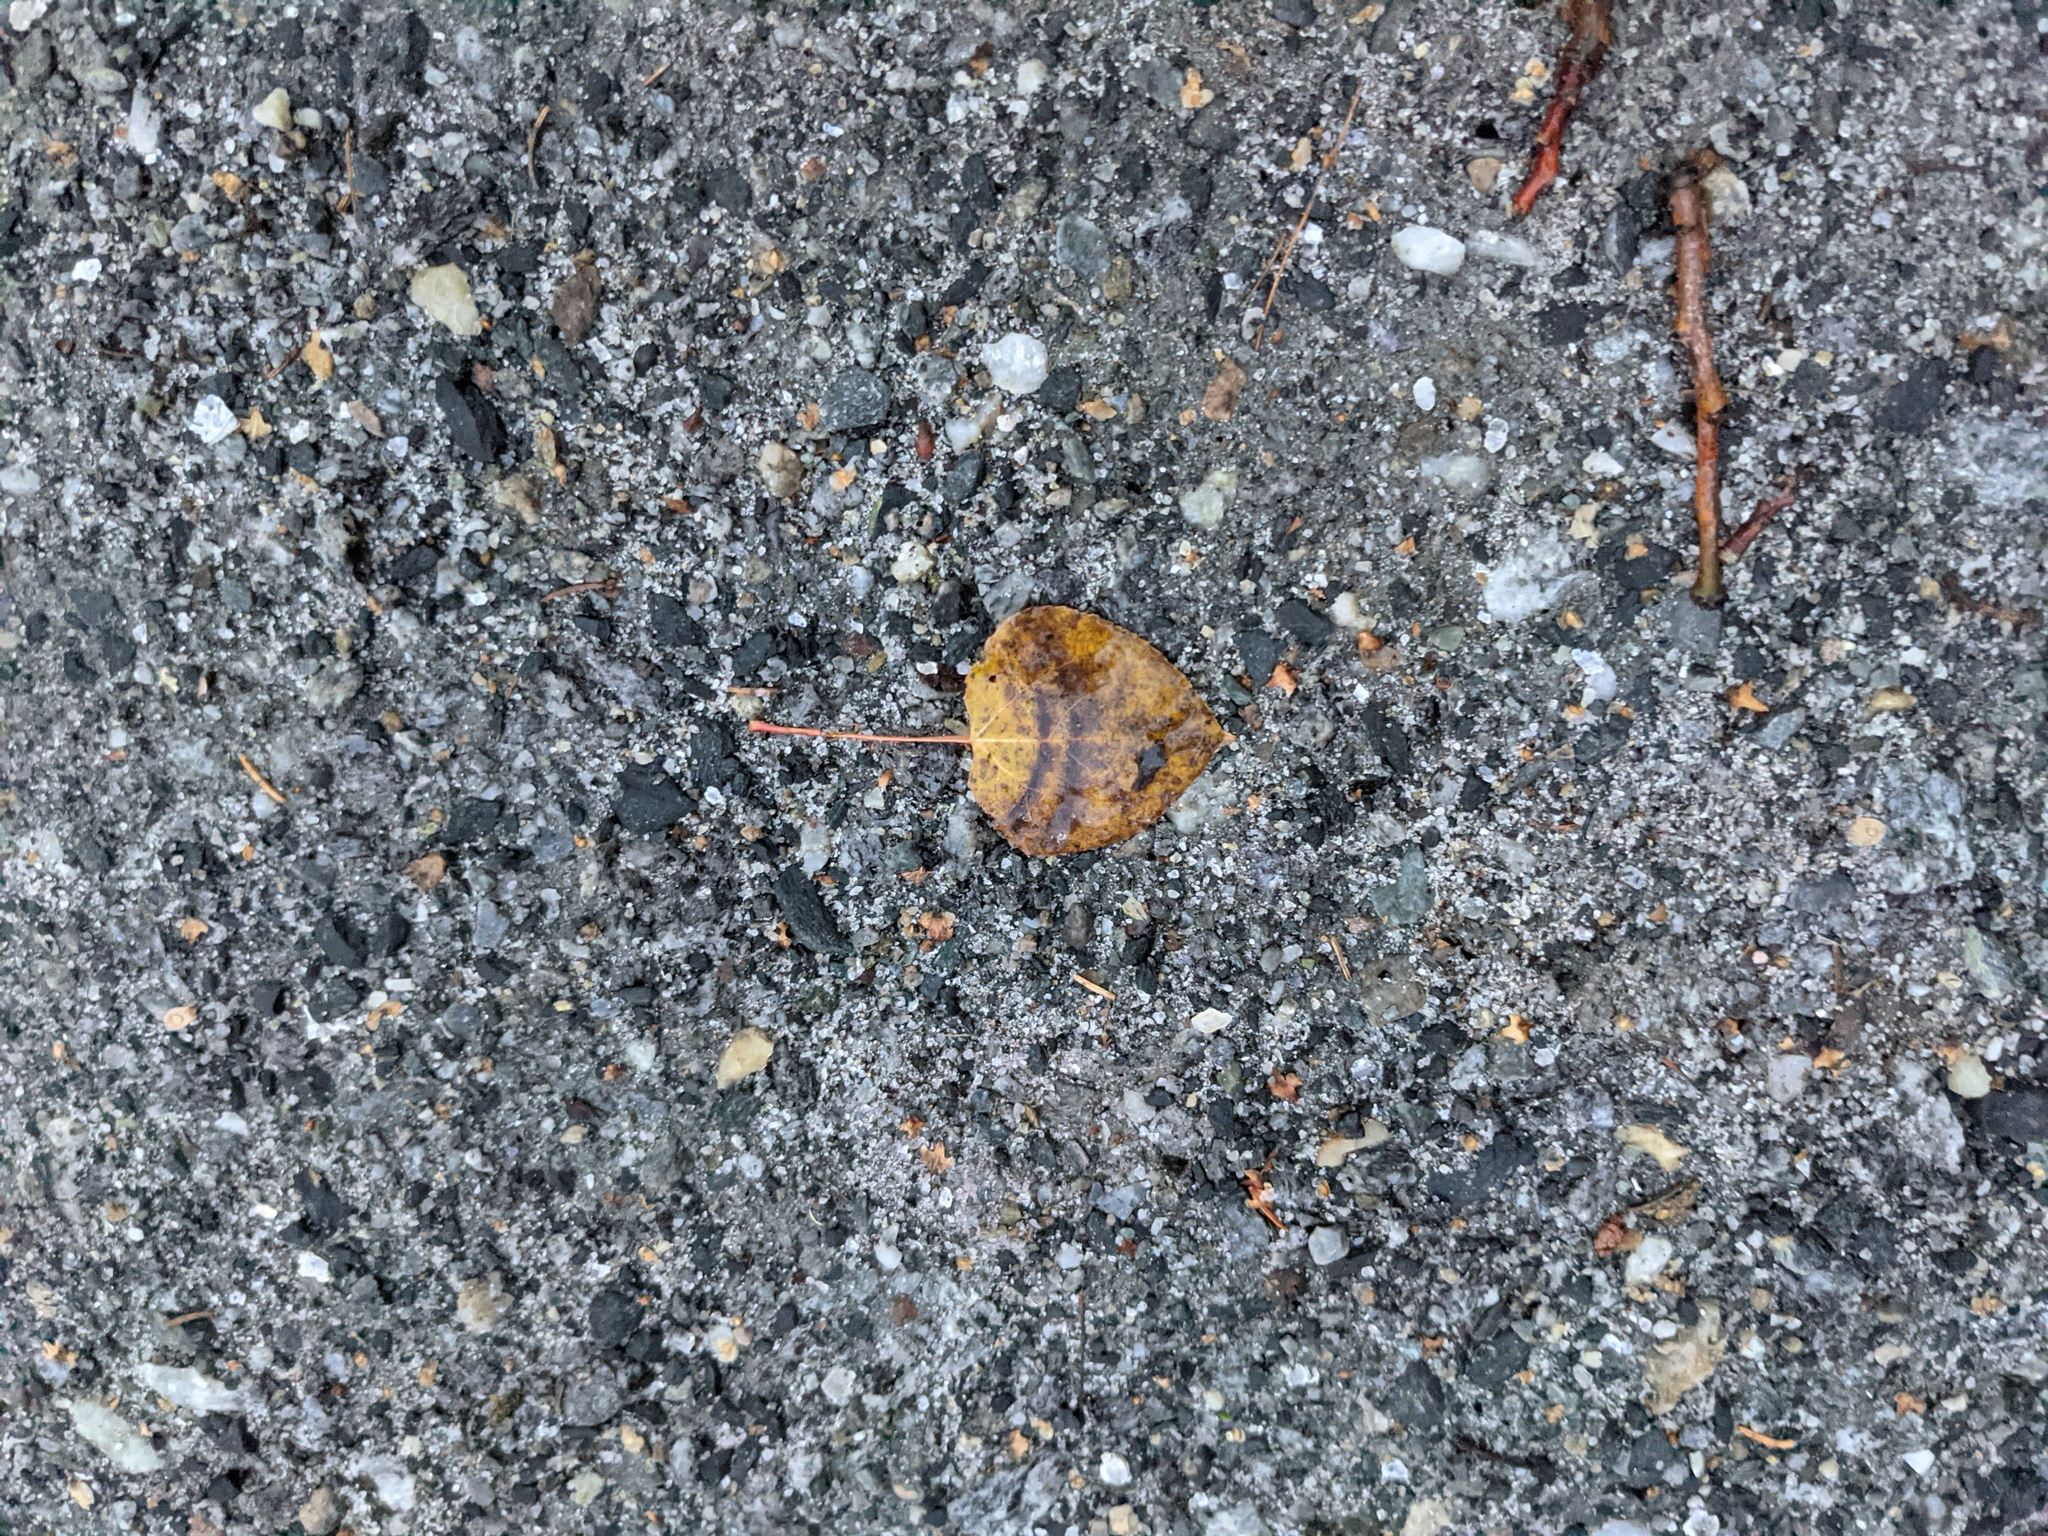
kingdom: Plantae
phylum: Tracheophyta
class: Magnoliopsida
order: Malpighiales
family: Salicaceae
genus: Populus
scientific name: Populus tremuloides
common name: Quaking aspen
